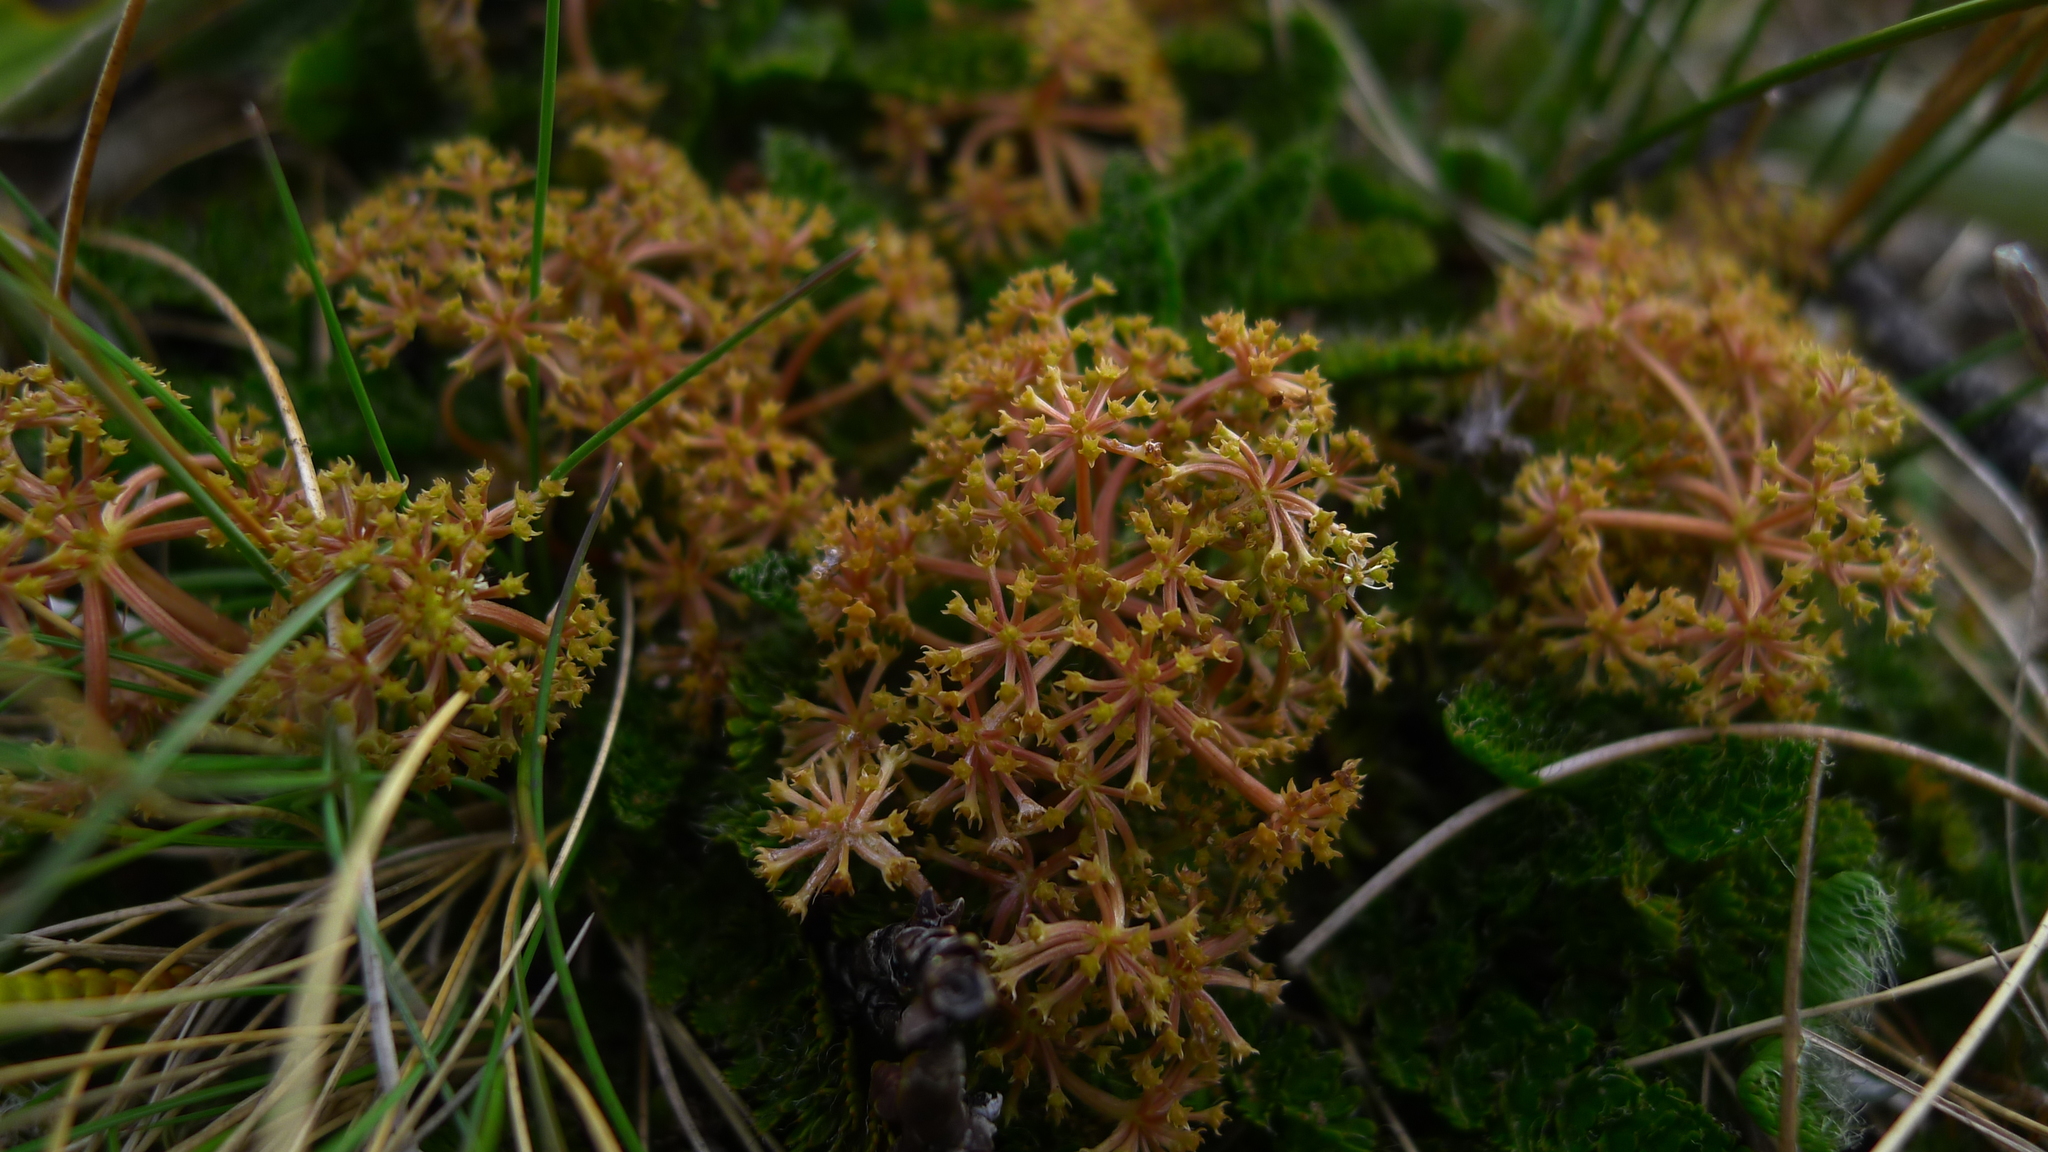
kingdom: Plantae
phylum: Tracheophyta
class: Magnoliopsida
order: Apiales
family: Apiaceae
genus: Anisotome
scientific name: Anisotome flexuosa
